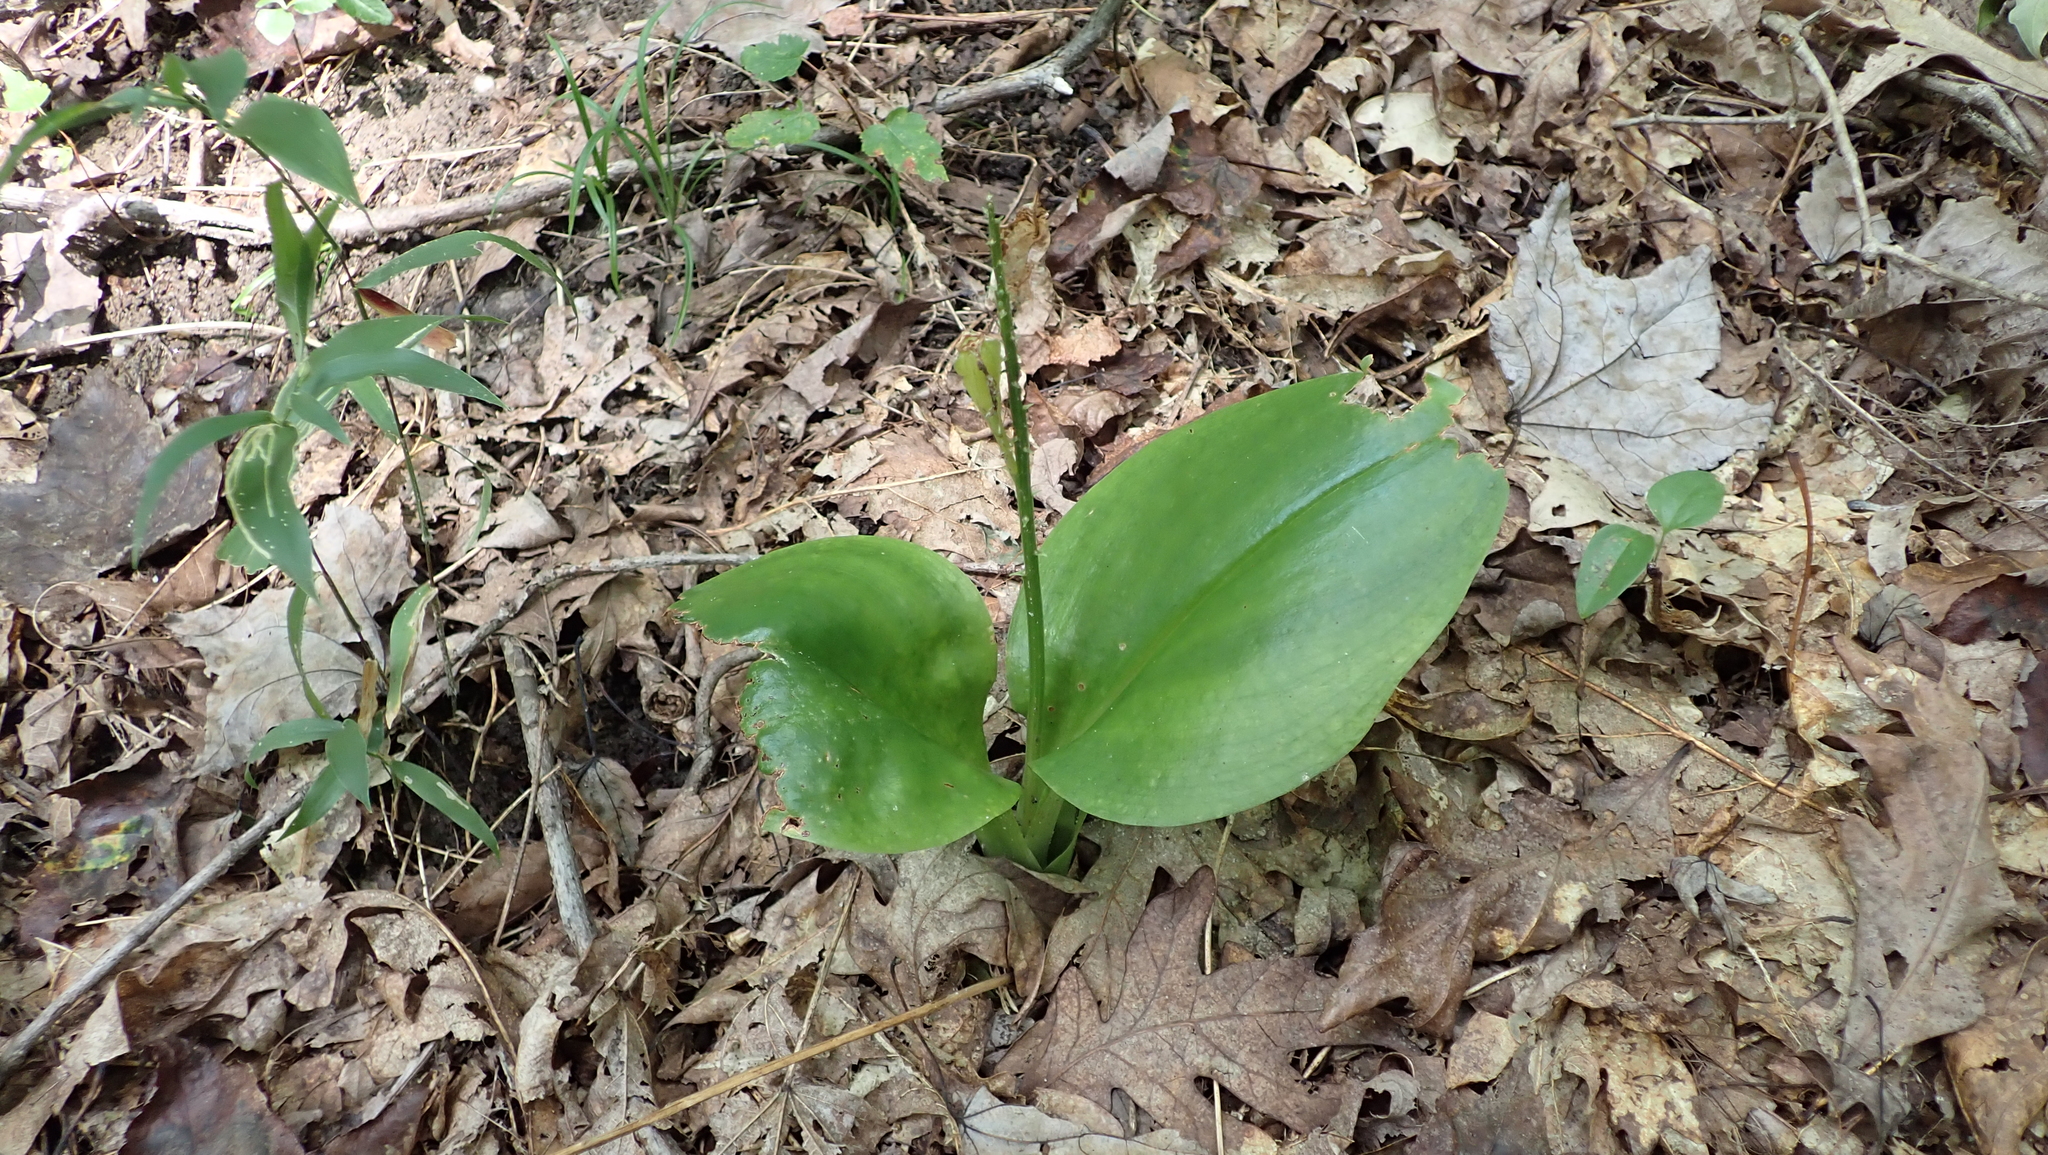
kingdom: Plantae
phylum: Tracheophyta
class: Liliopsida
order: Asparagales
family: Orchidaceae
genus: Liparis
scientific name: Liparis liliifolia
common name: Brown wide-lip orchid
